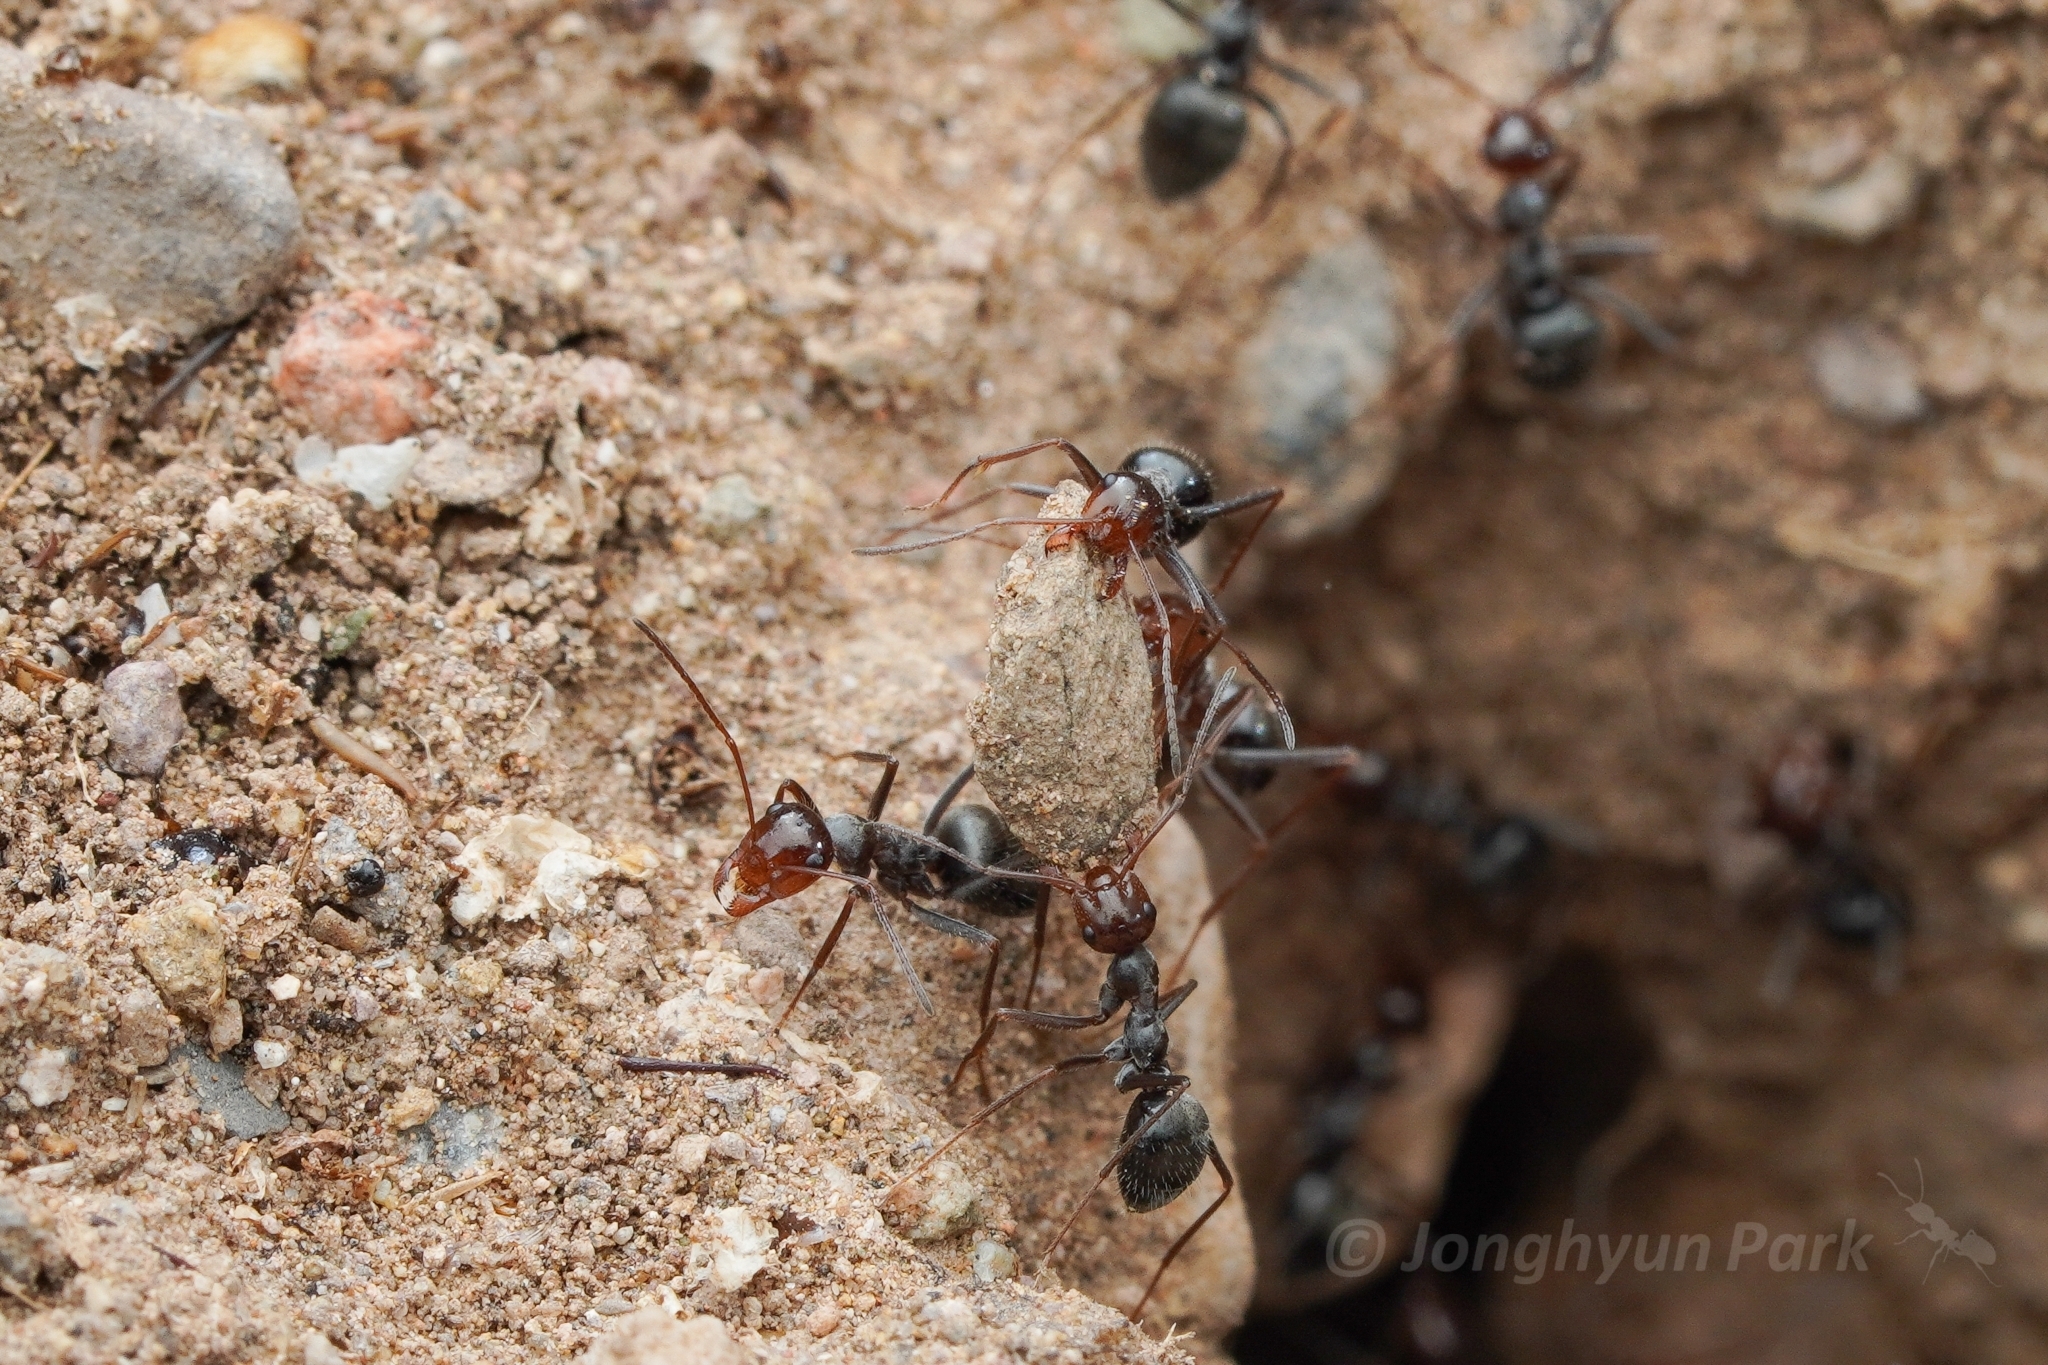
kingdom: Animalia
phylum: Arthropoda
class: Insecta
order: Hymenoptera
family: Formicidae
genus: Myrmecocystus
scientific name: Myrmecocystus mimicus
